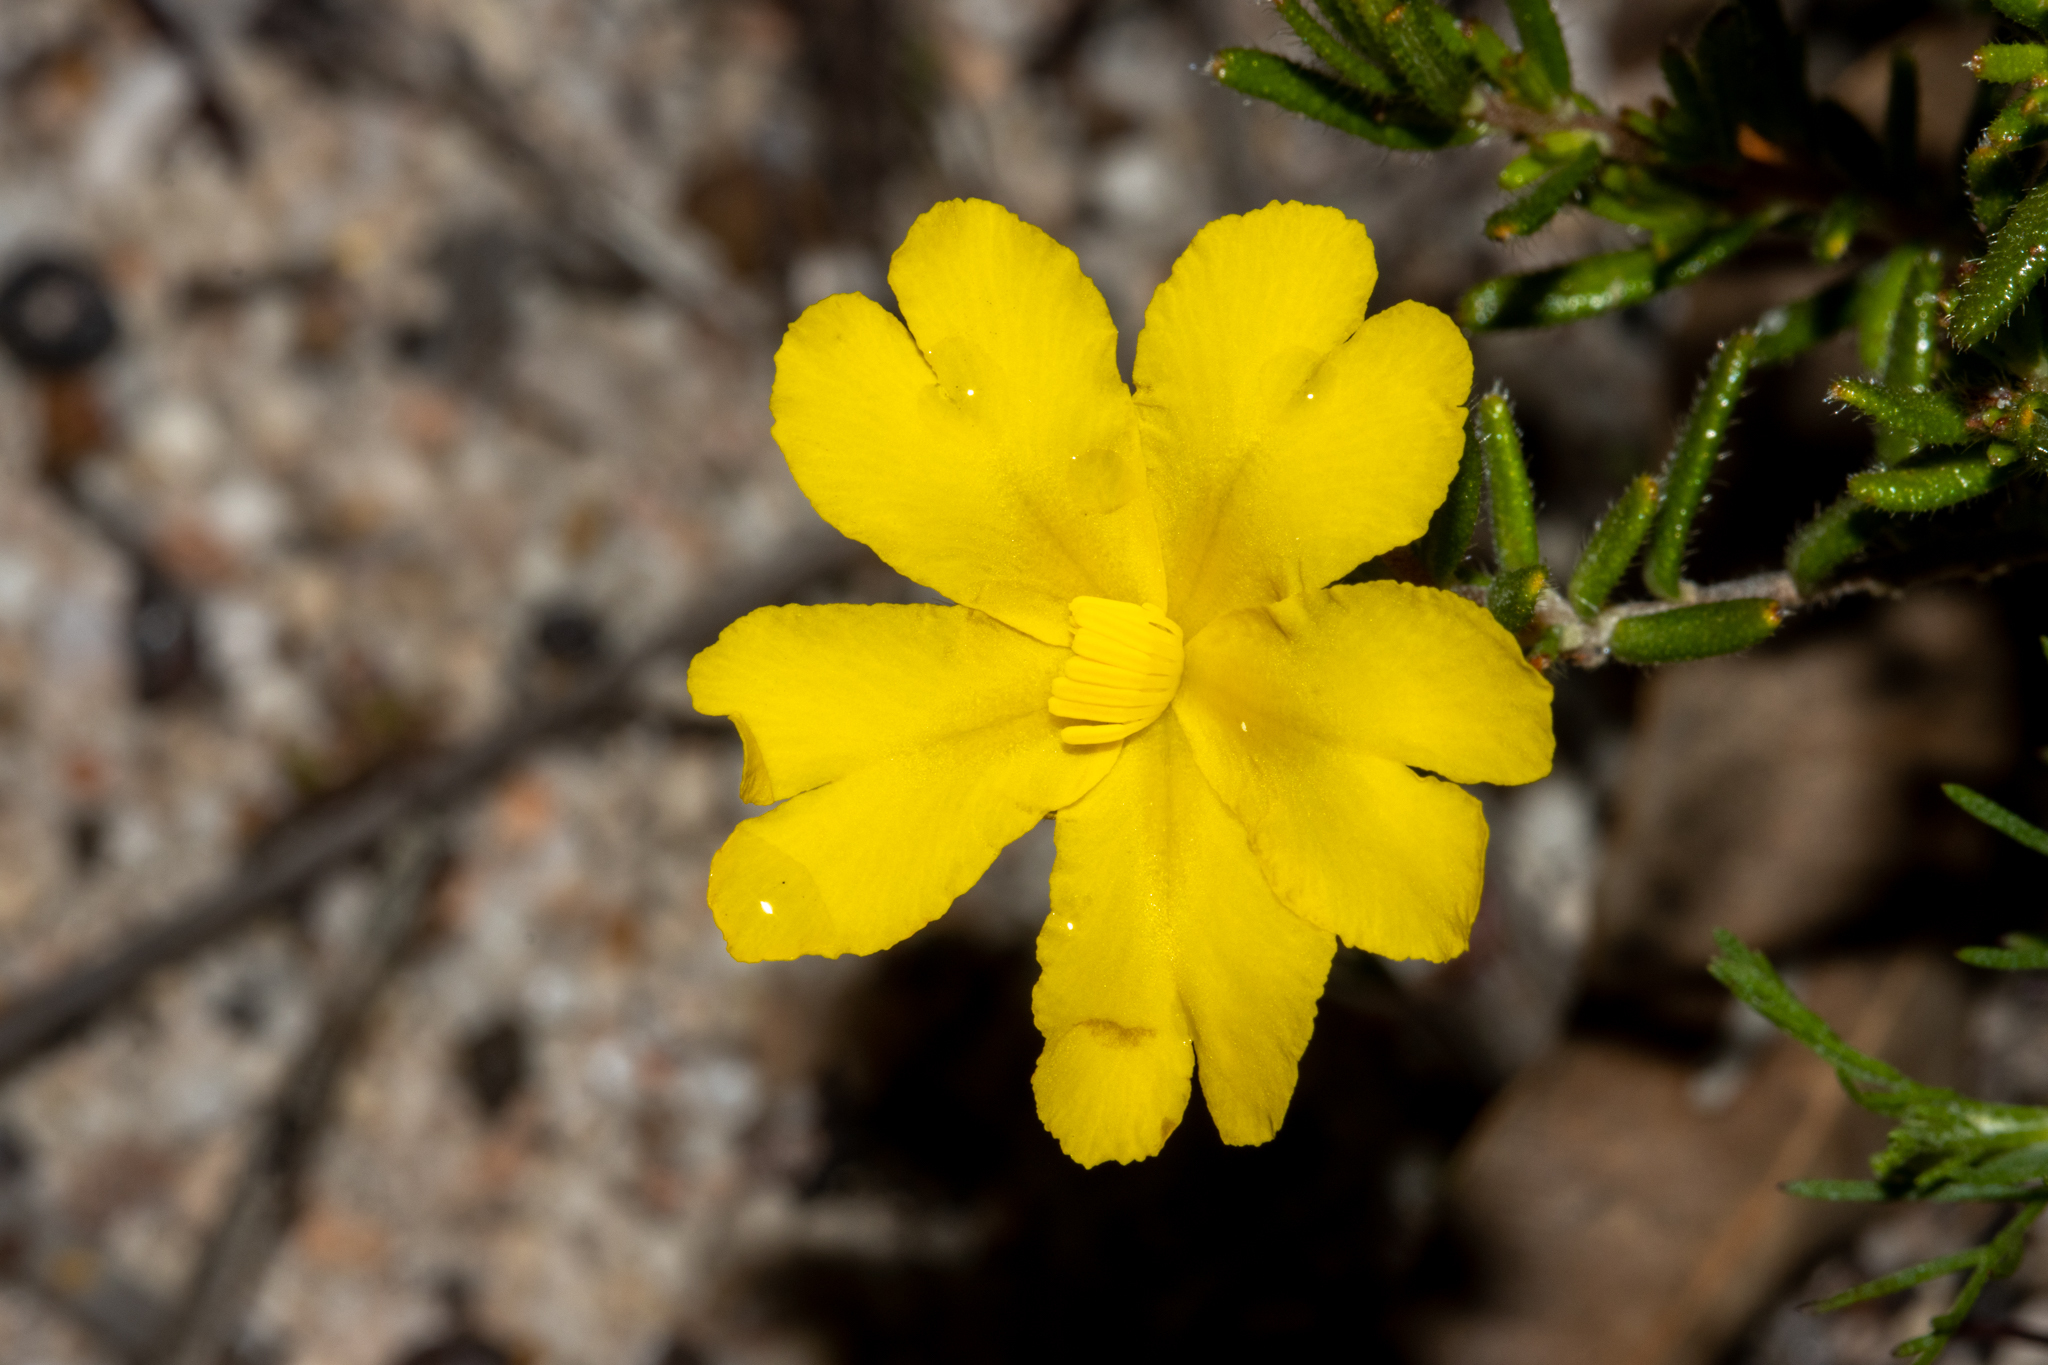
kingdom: Plantae
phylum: Tracheophyta
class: Magnoliopsida
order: Dilleniales
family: Dilleniaceae
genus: Hibbertia
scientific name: Hibbertia hypericoides
